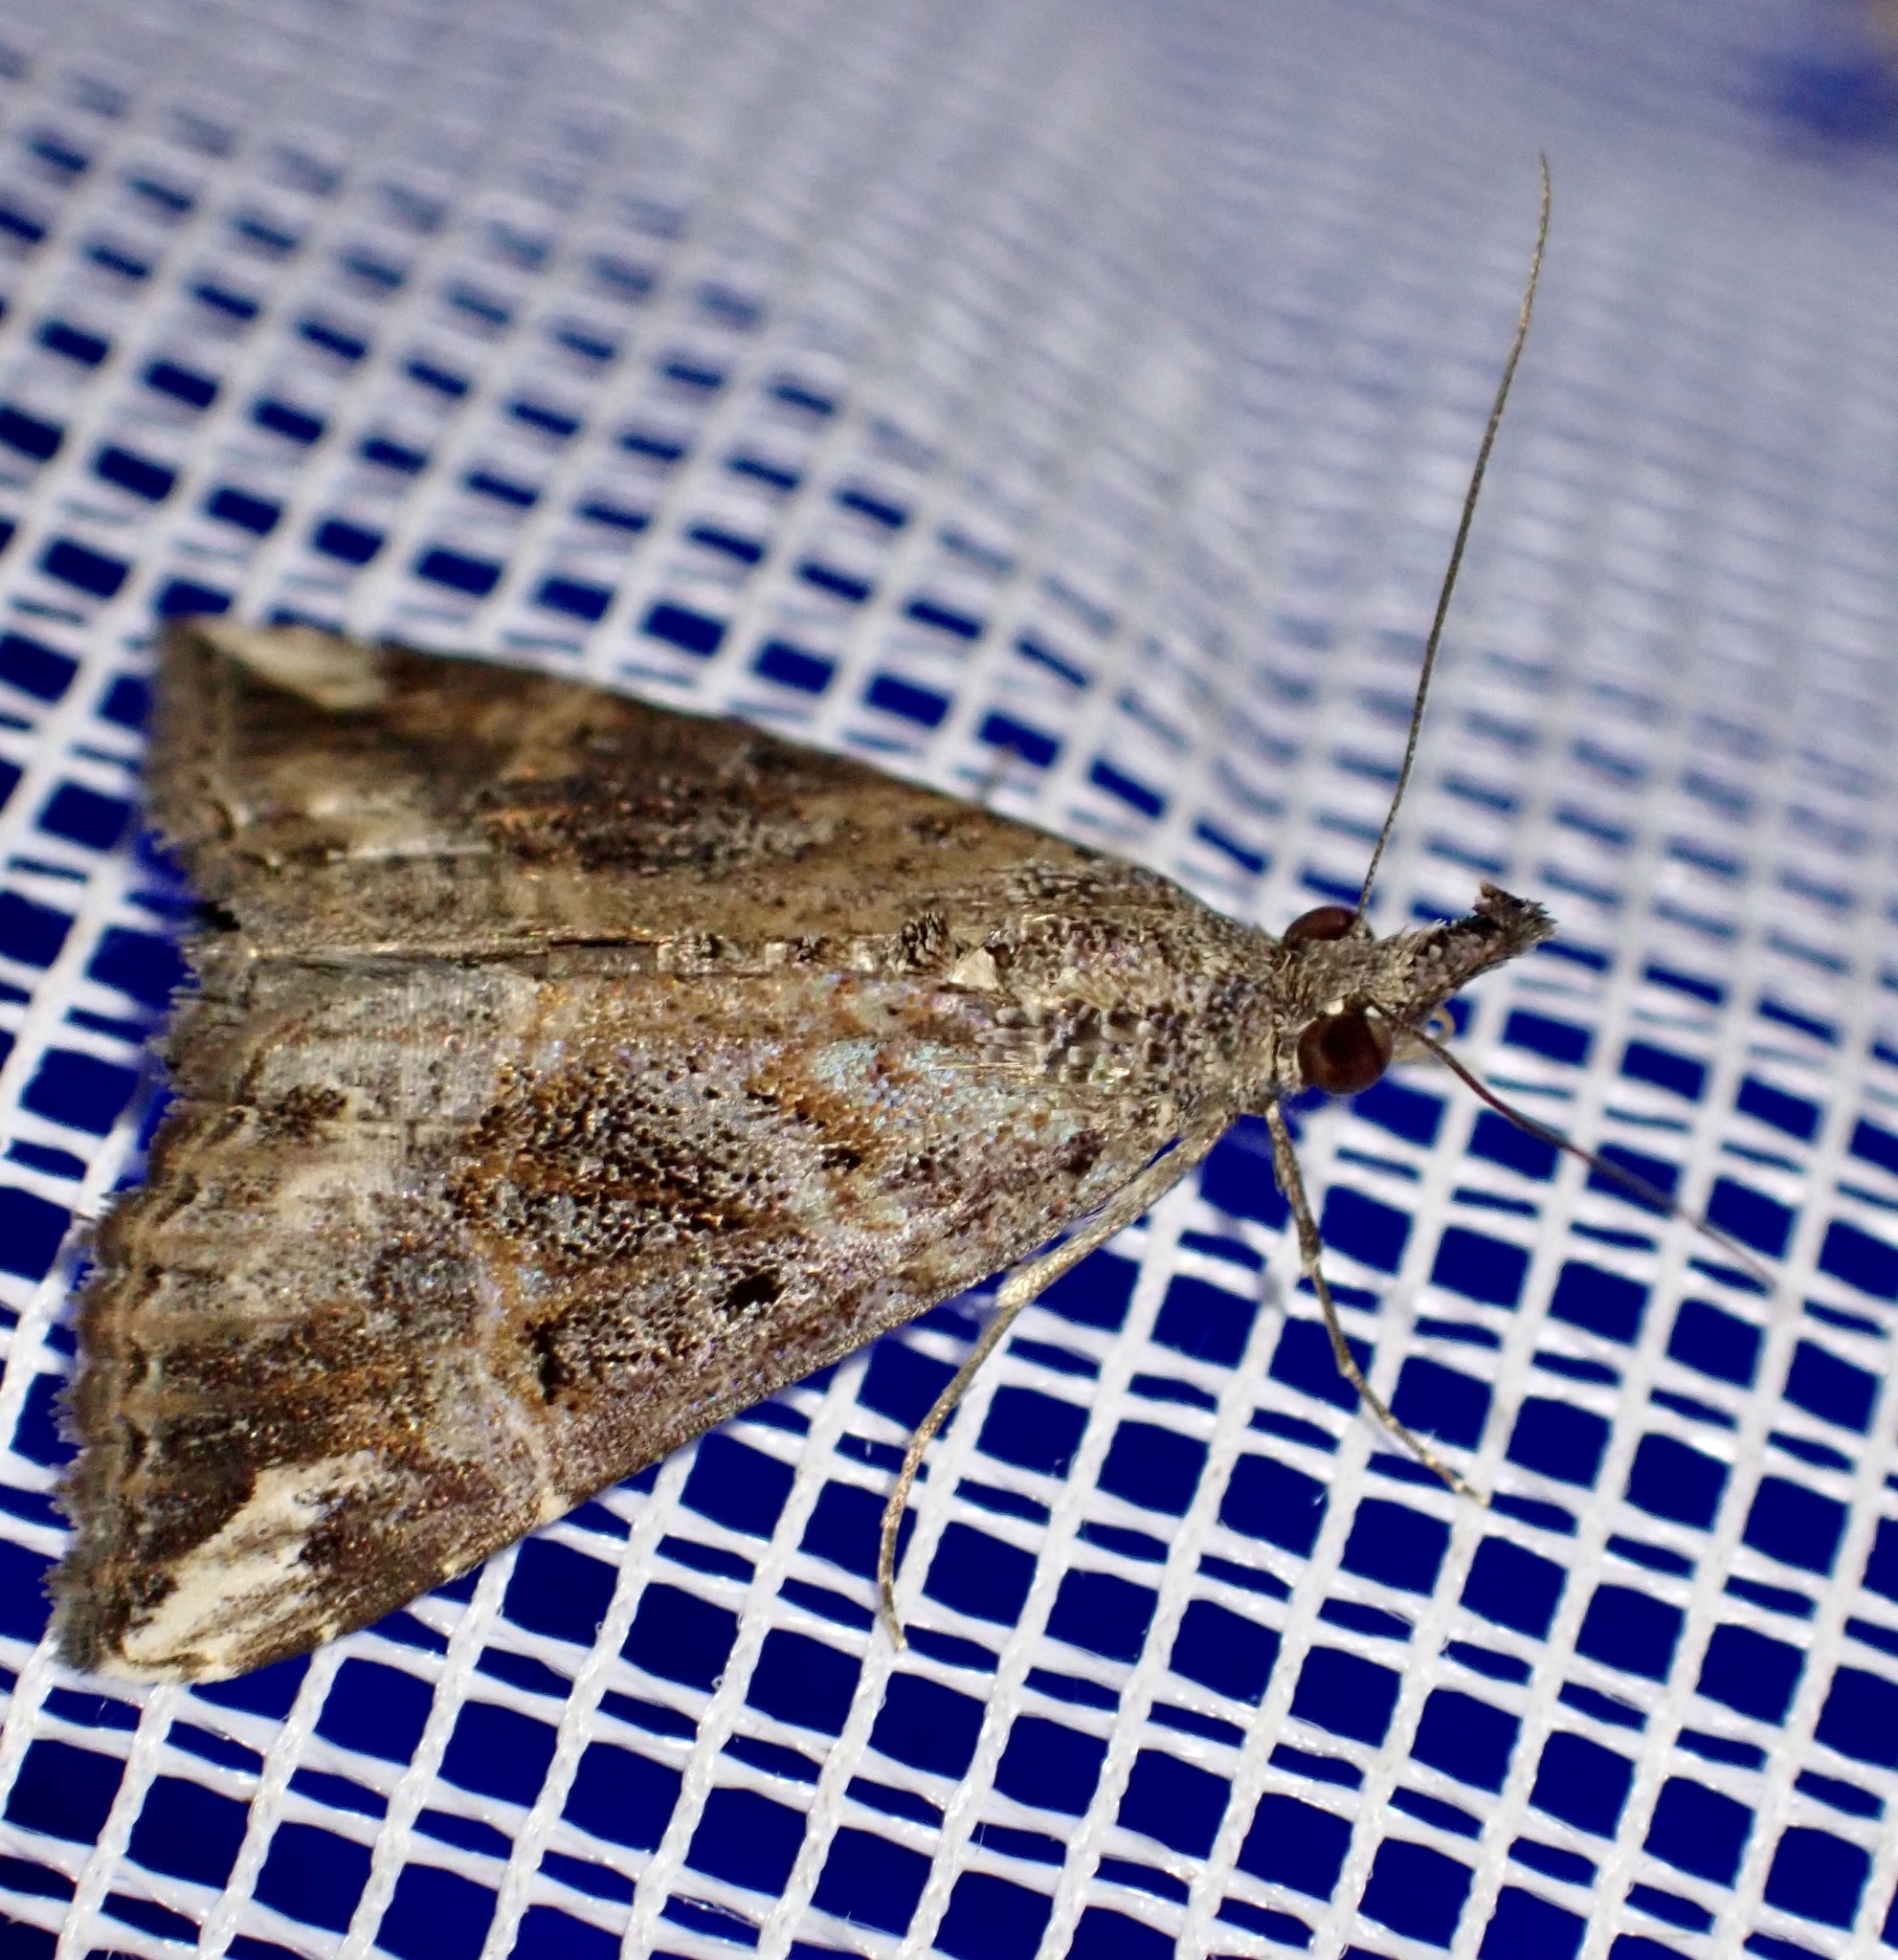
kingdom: Animalia
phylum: Arthropoda
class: Insecta
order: Lepidoptera
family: Erebidae
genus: Hypena
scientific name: Hypena commixtalis
